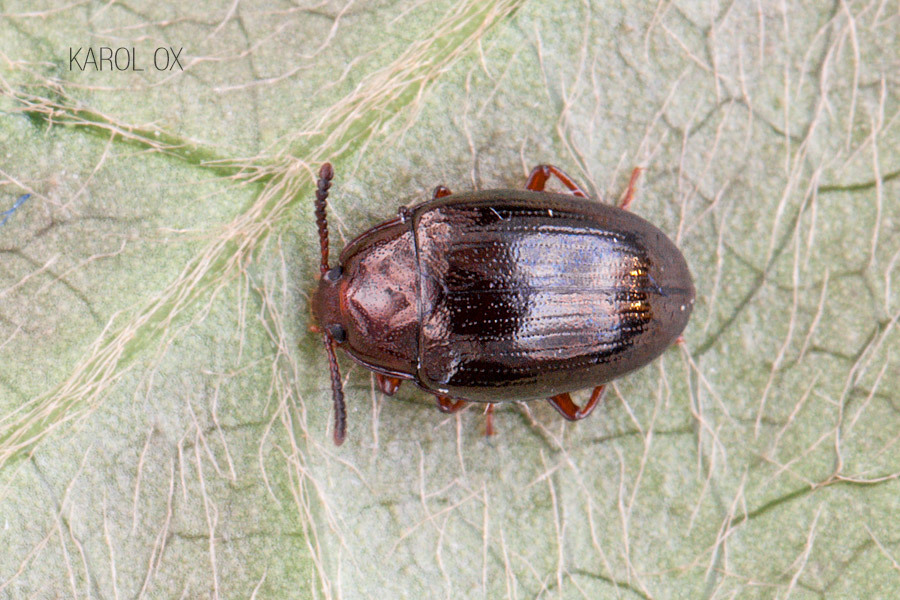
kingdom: Animalia
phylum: Arthropoda
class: Insecta
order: Coleoptera
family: Tenebrionidae
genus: Blapstinus
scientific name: Blapstinus metallicus
